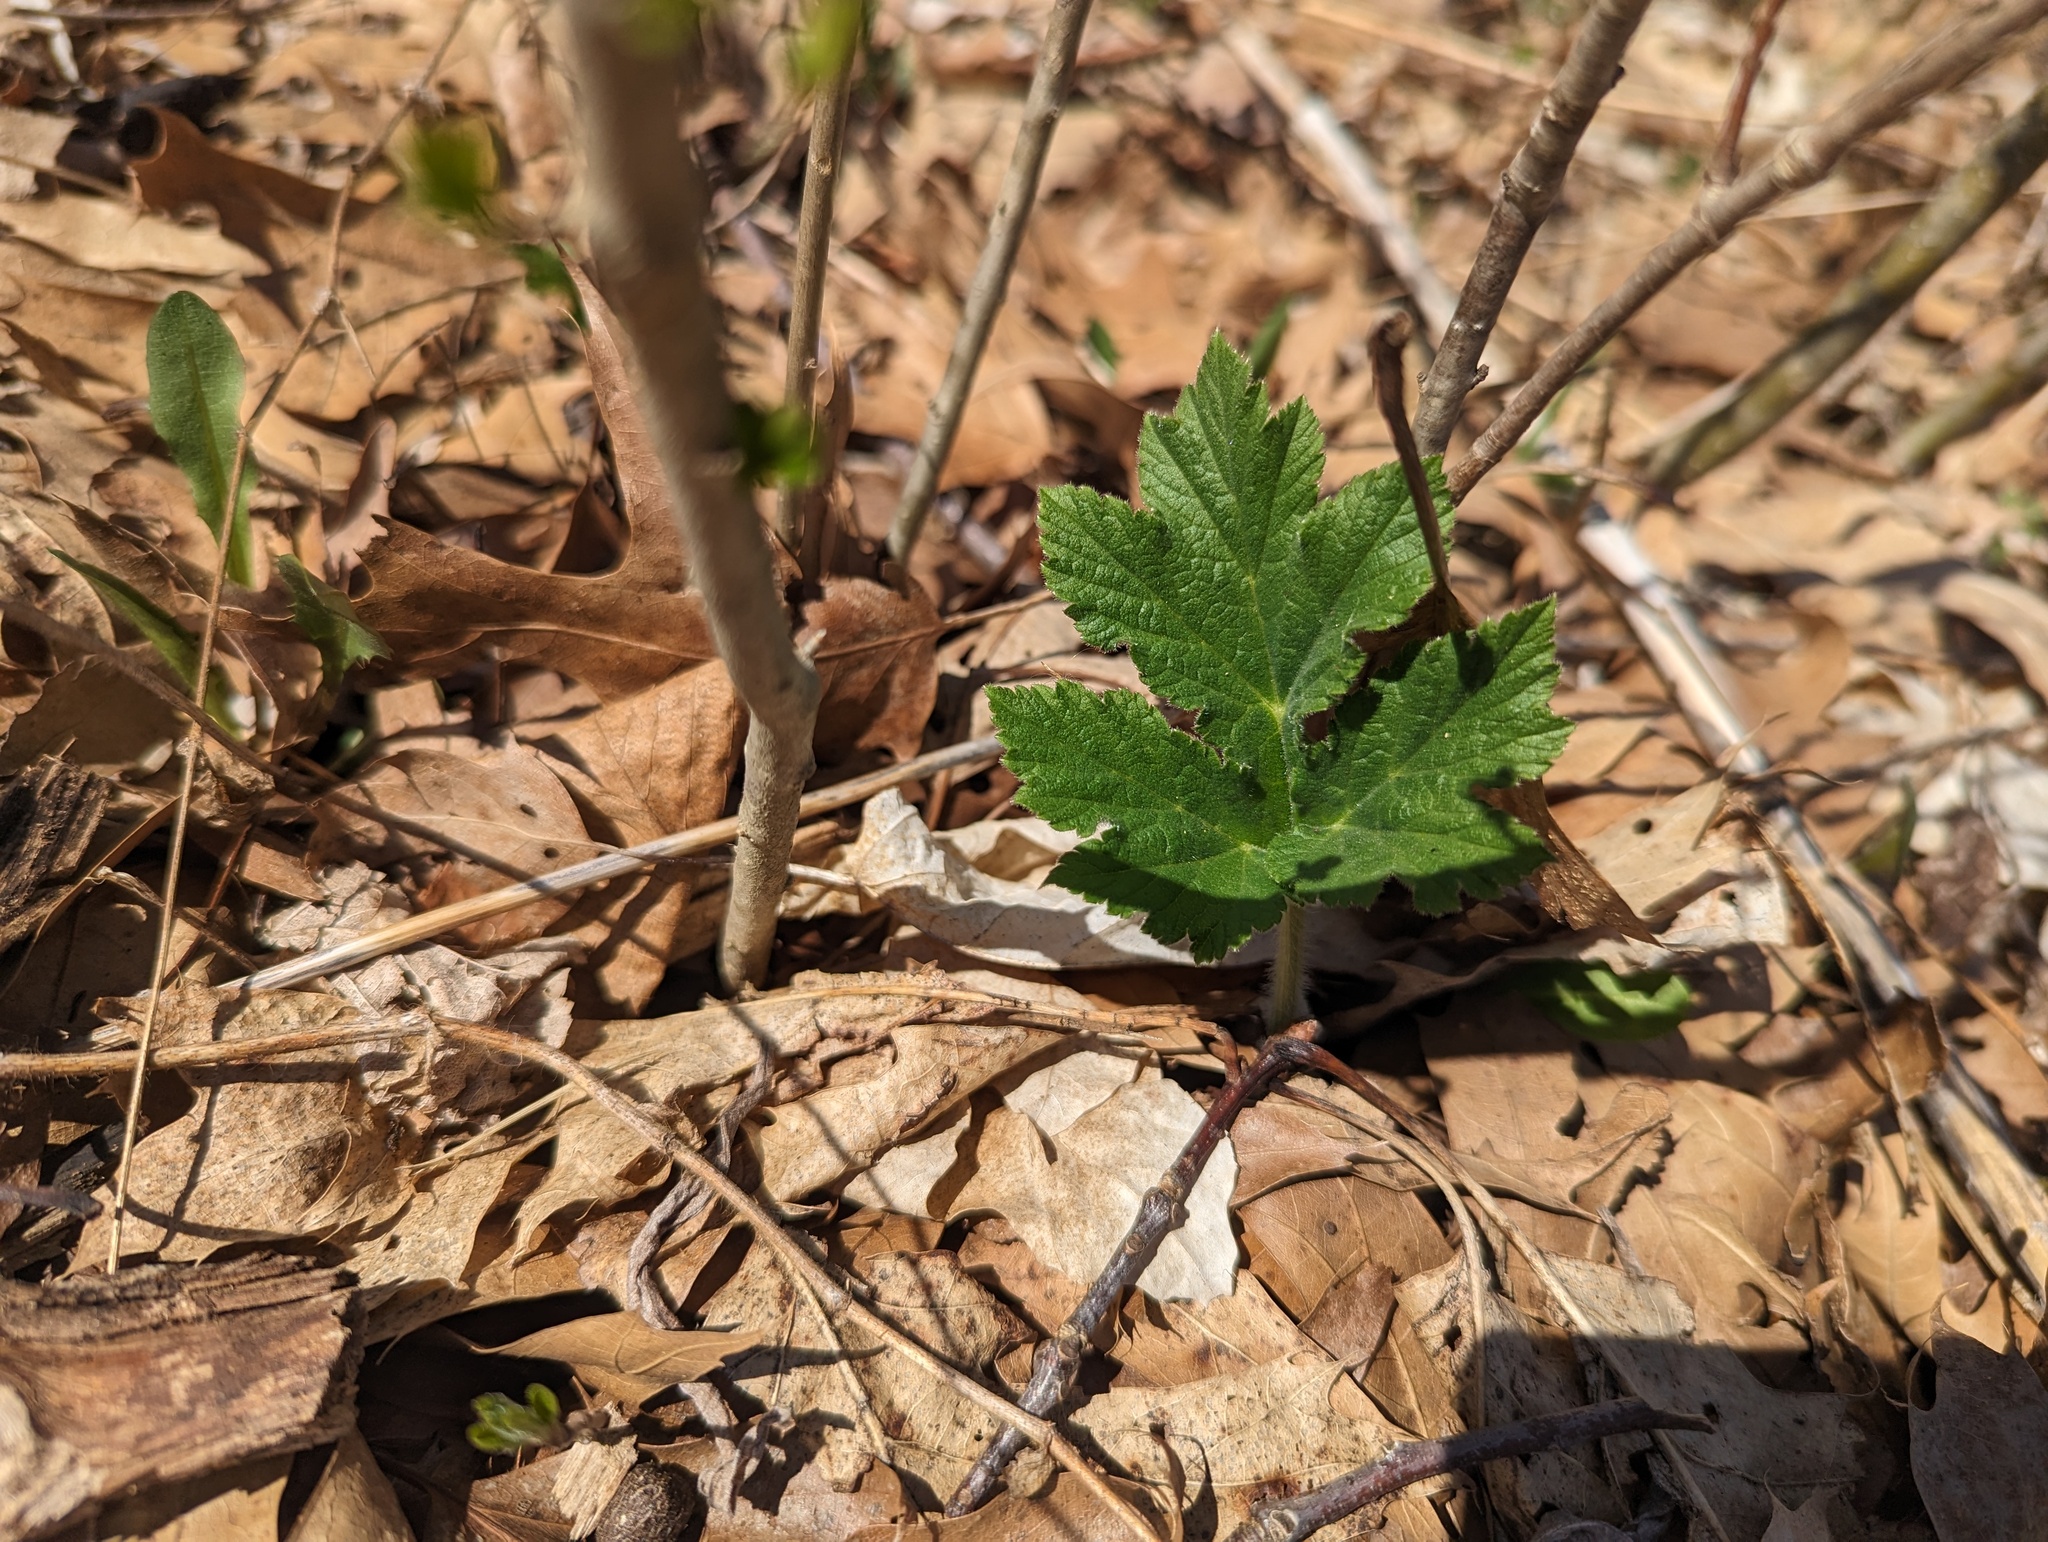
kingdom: Plantae
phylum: Tracheophyta
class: Magnoliopsida
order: Apiales
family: Apiaceae
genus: Heracleum
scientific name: Heracleum maximum
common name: American cow parsnip
